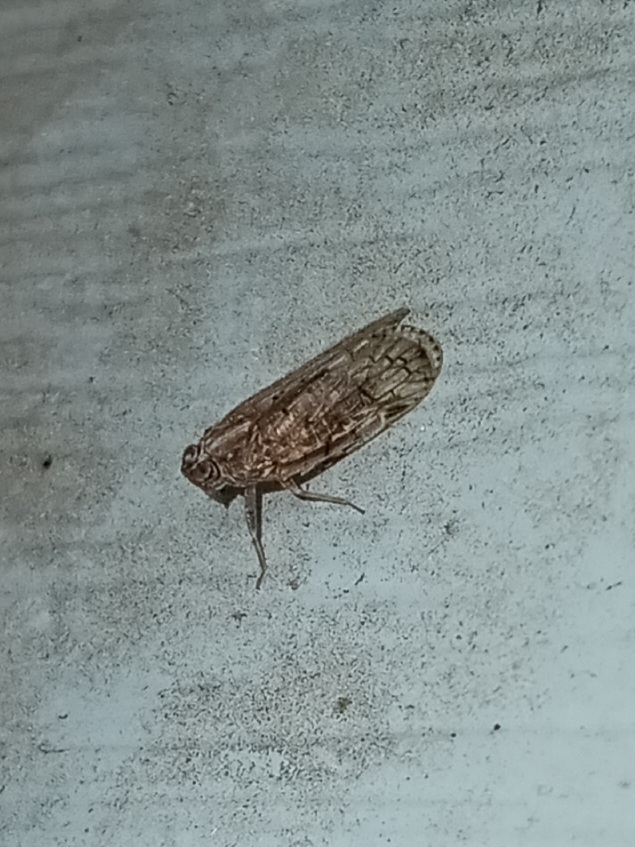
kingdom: Animalia
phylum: Arthropoda
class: Insecta
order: Hemiptera
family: Cixiidae
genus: Melanoliarus
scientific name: Melanoliarus placitus
